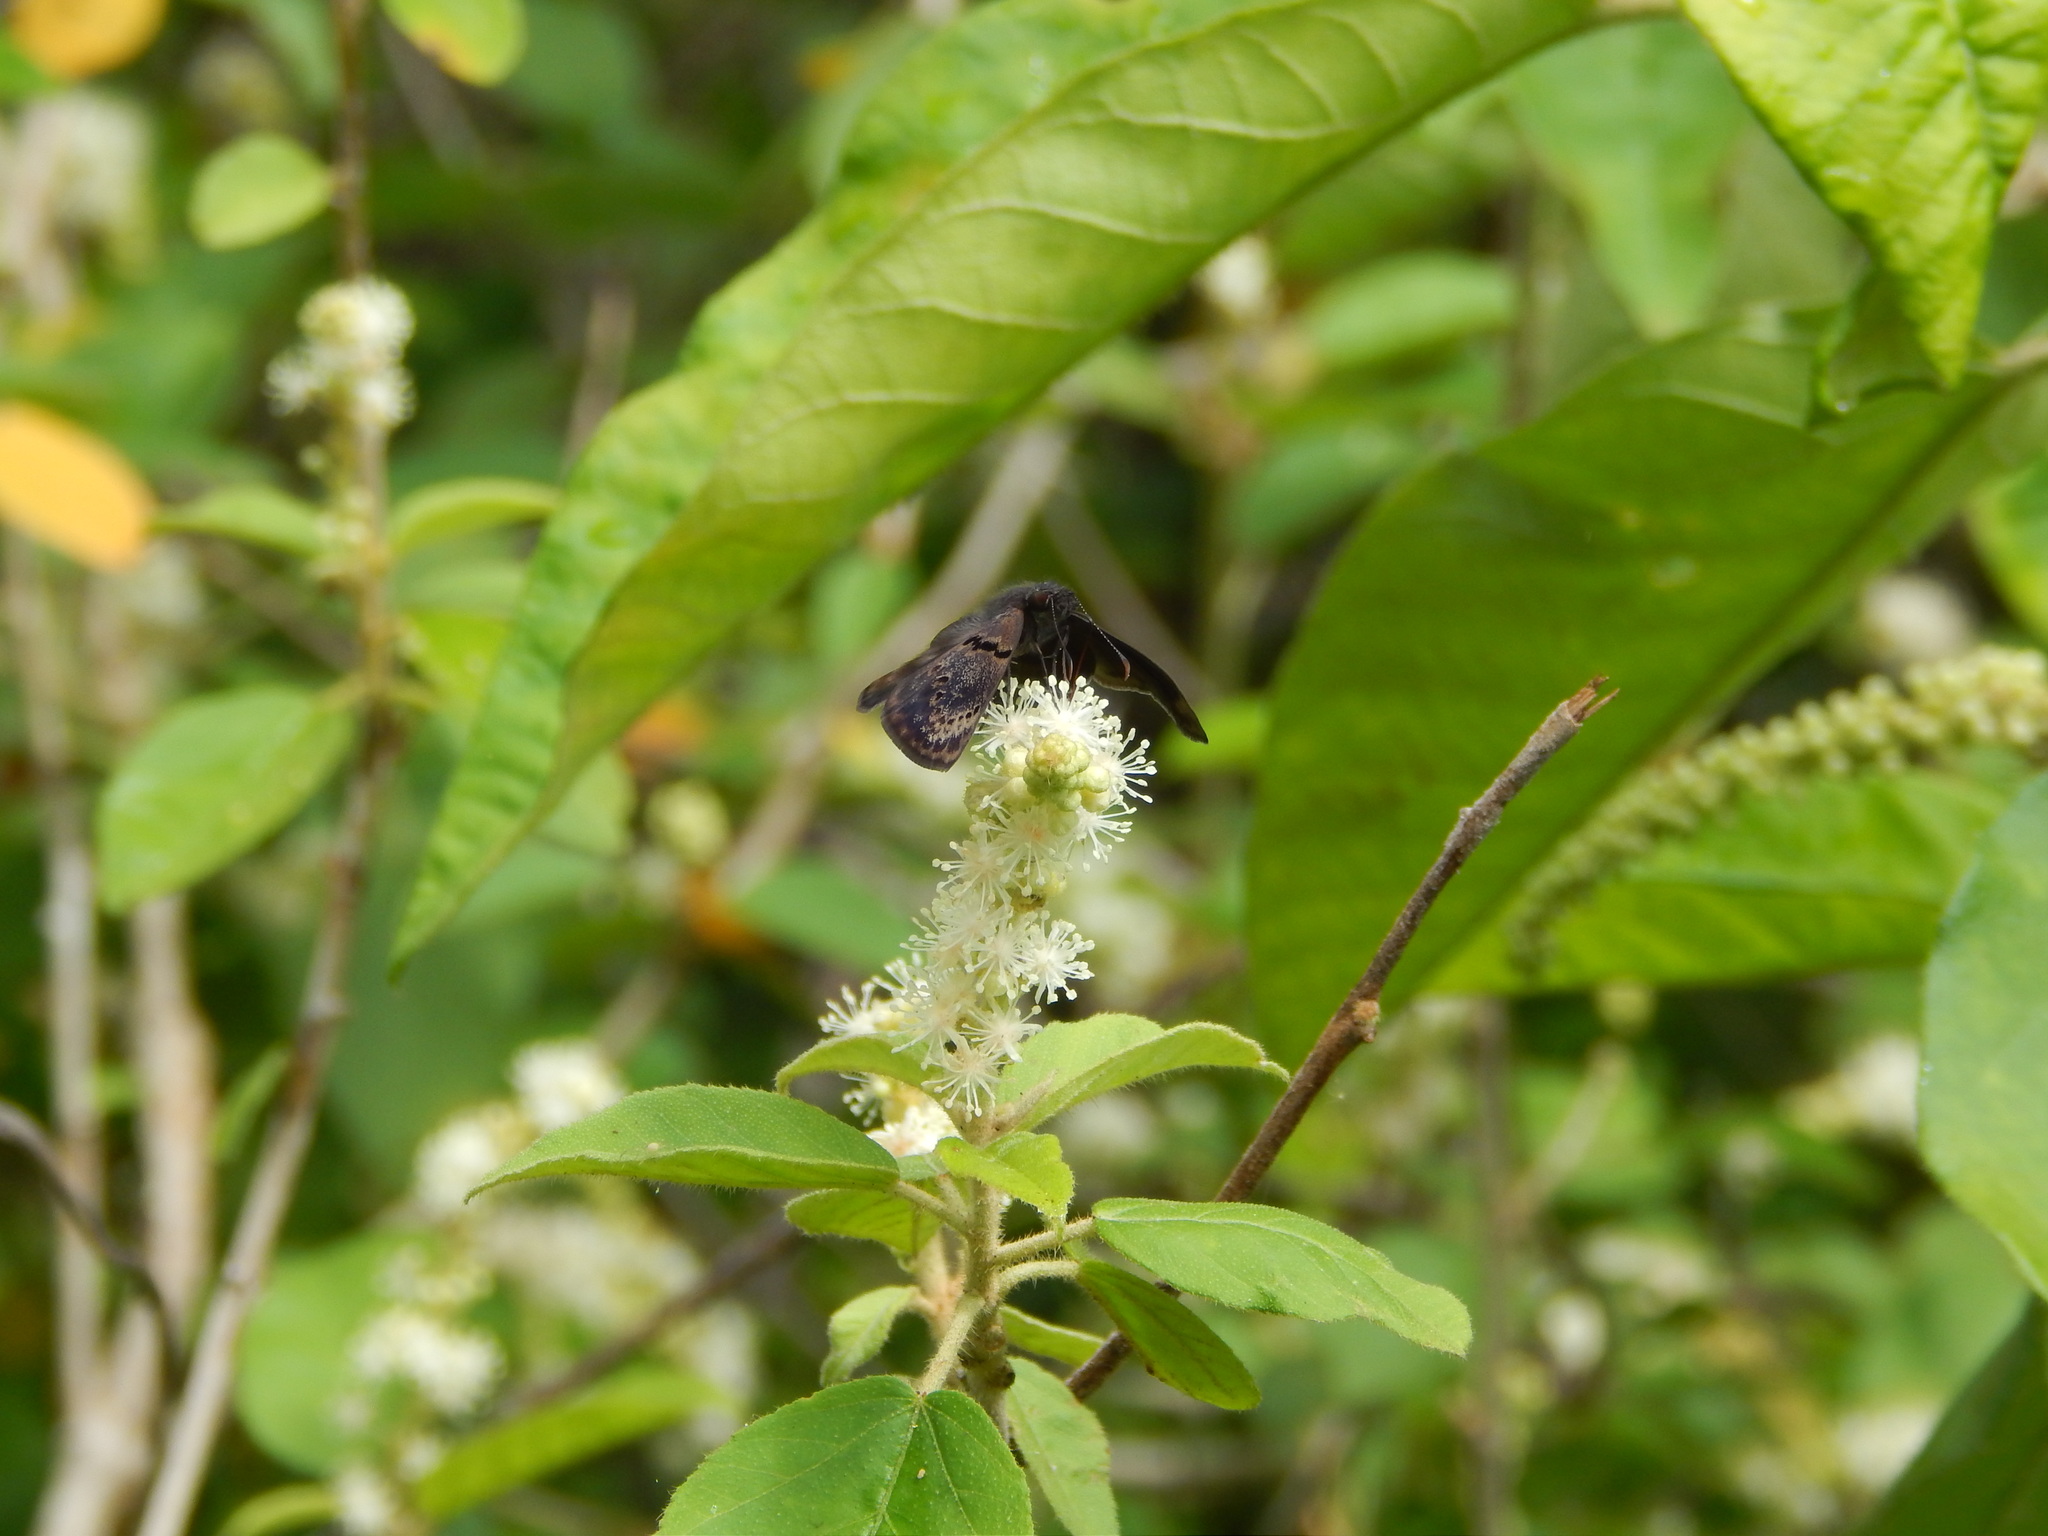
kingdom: Animalia
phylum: Arthropoda
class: Insecta
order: Lepidoptera
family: Hesperiidae
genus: Chiomara
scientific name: Chiomara mithrax
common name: Slaty skipper
